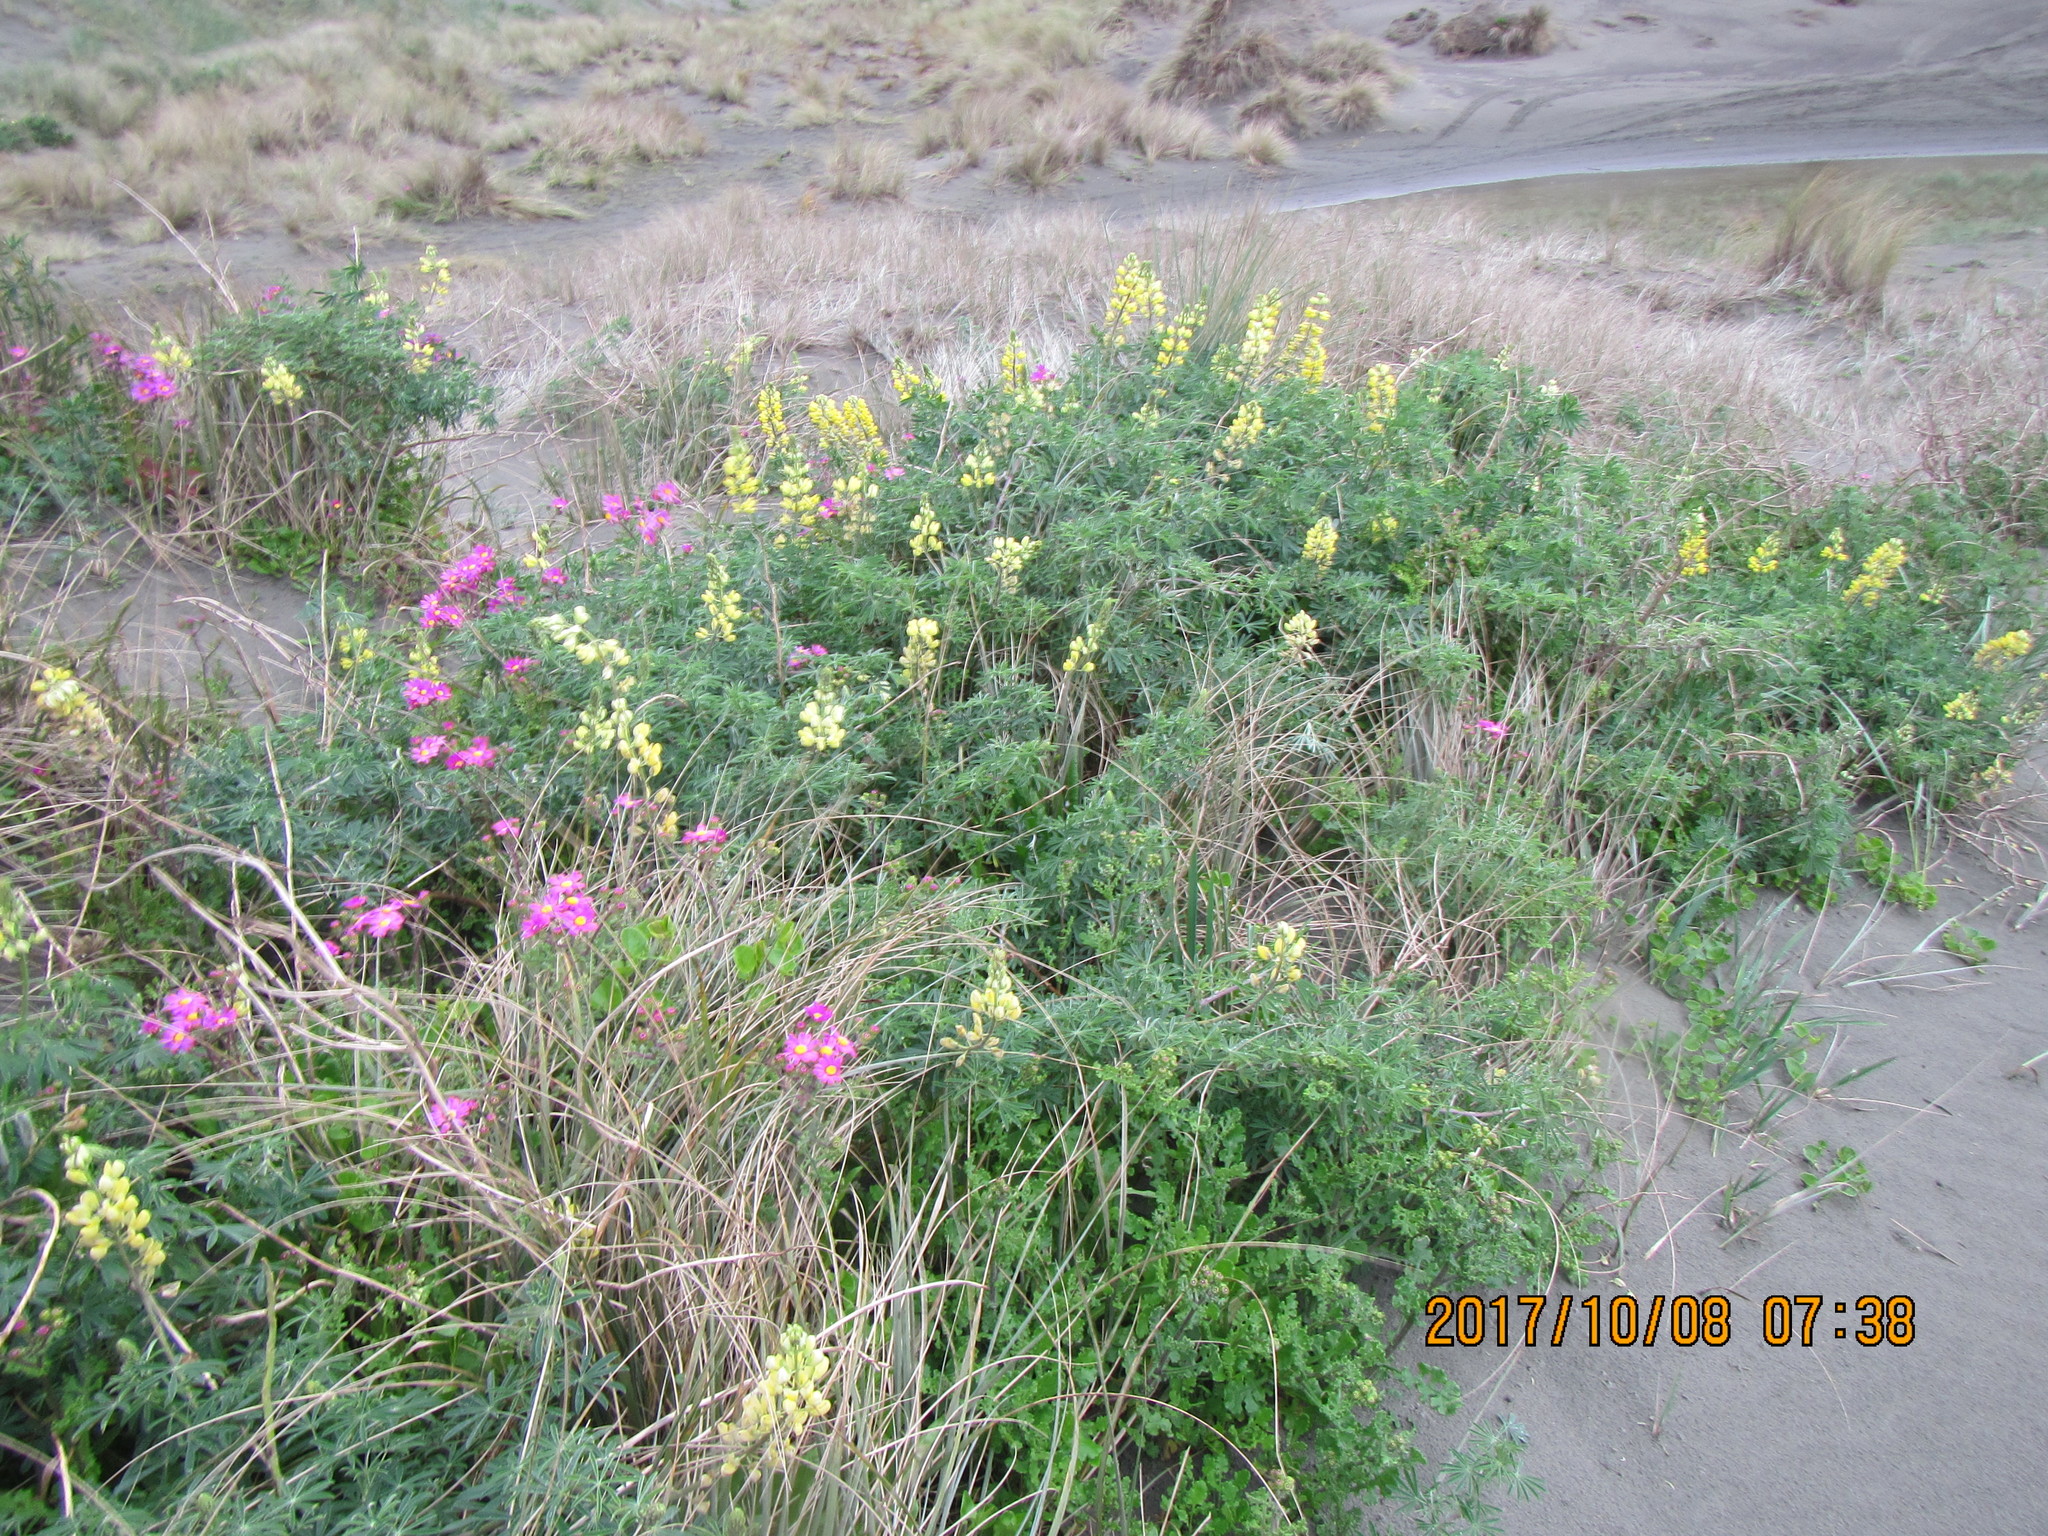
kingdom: Plantae
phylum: Tracheophyta
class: Magnoliopsida
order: Fabales
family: Fabaceae
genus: Lupinus
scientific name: Lupinus arboreus
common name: Yellow bush lupine
